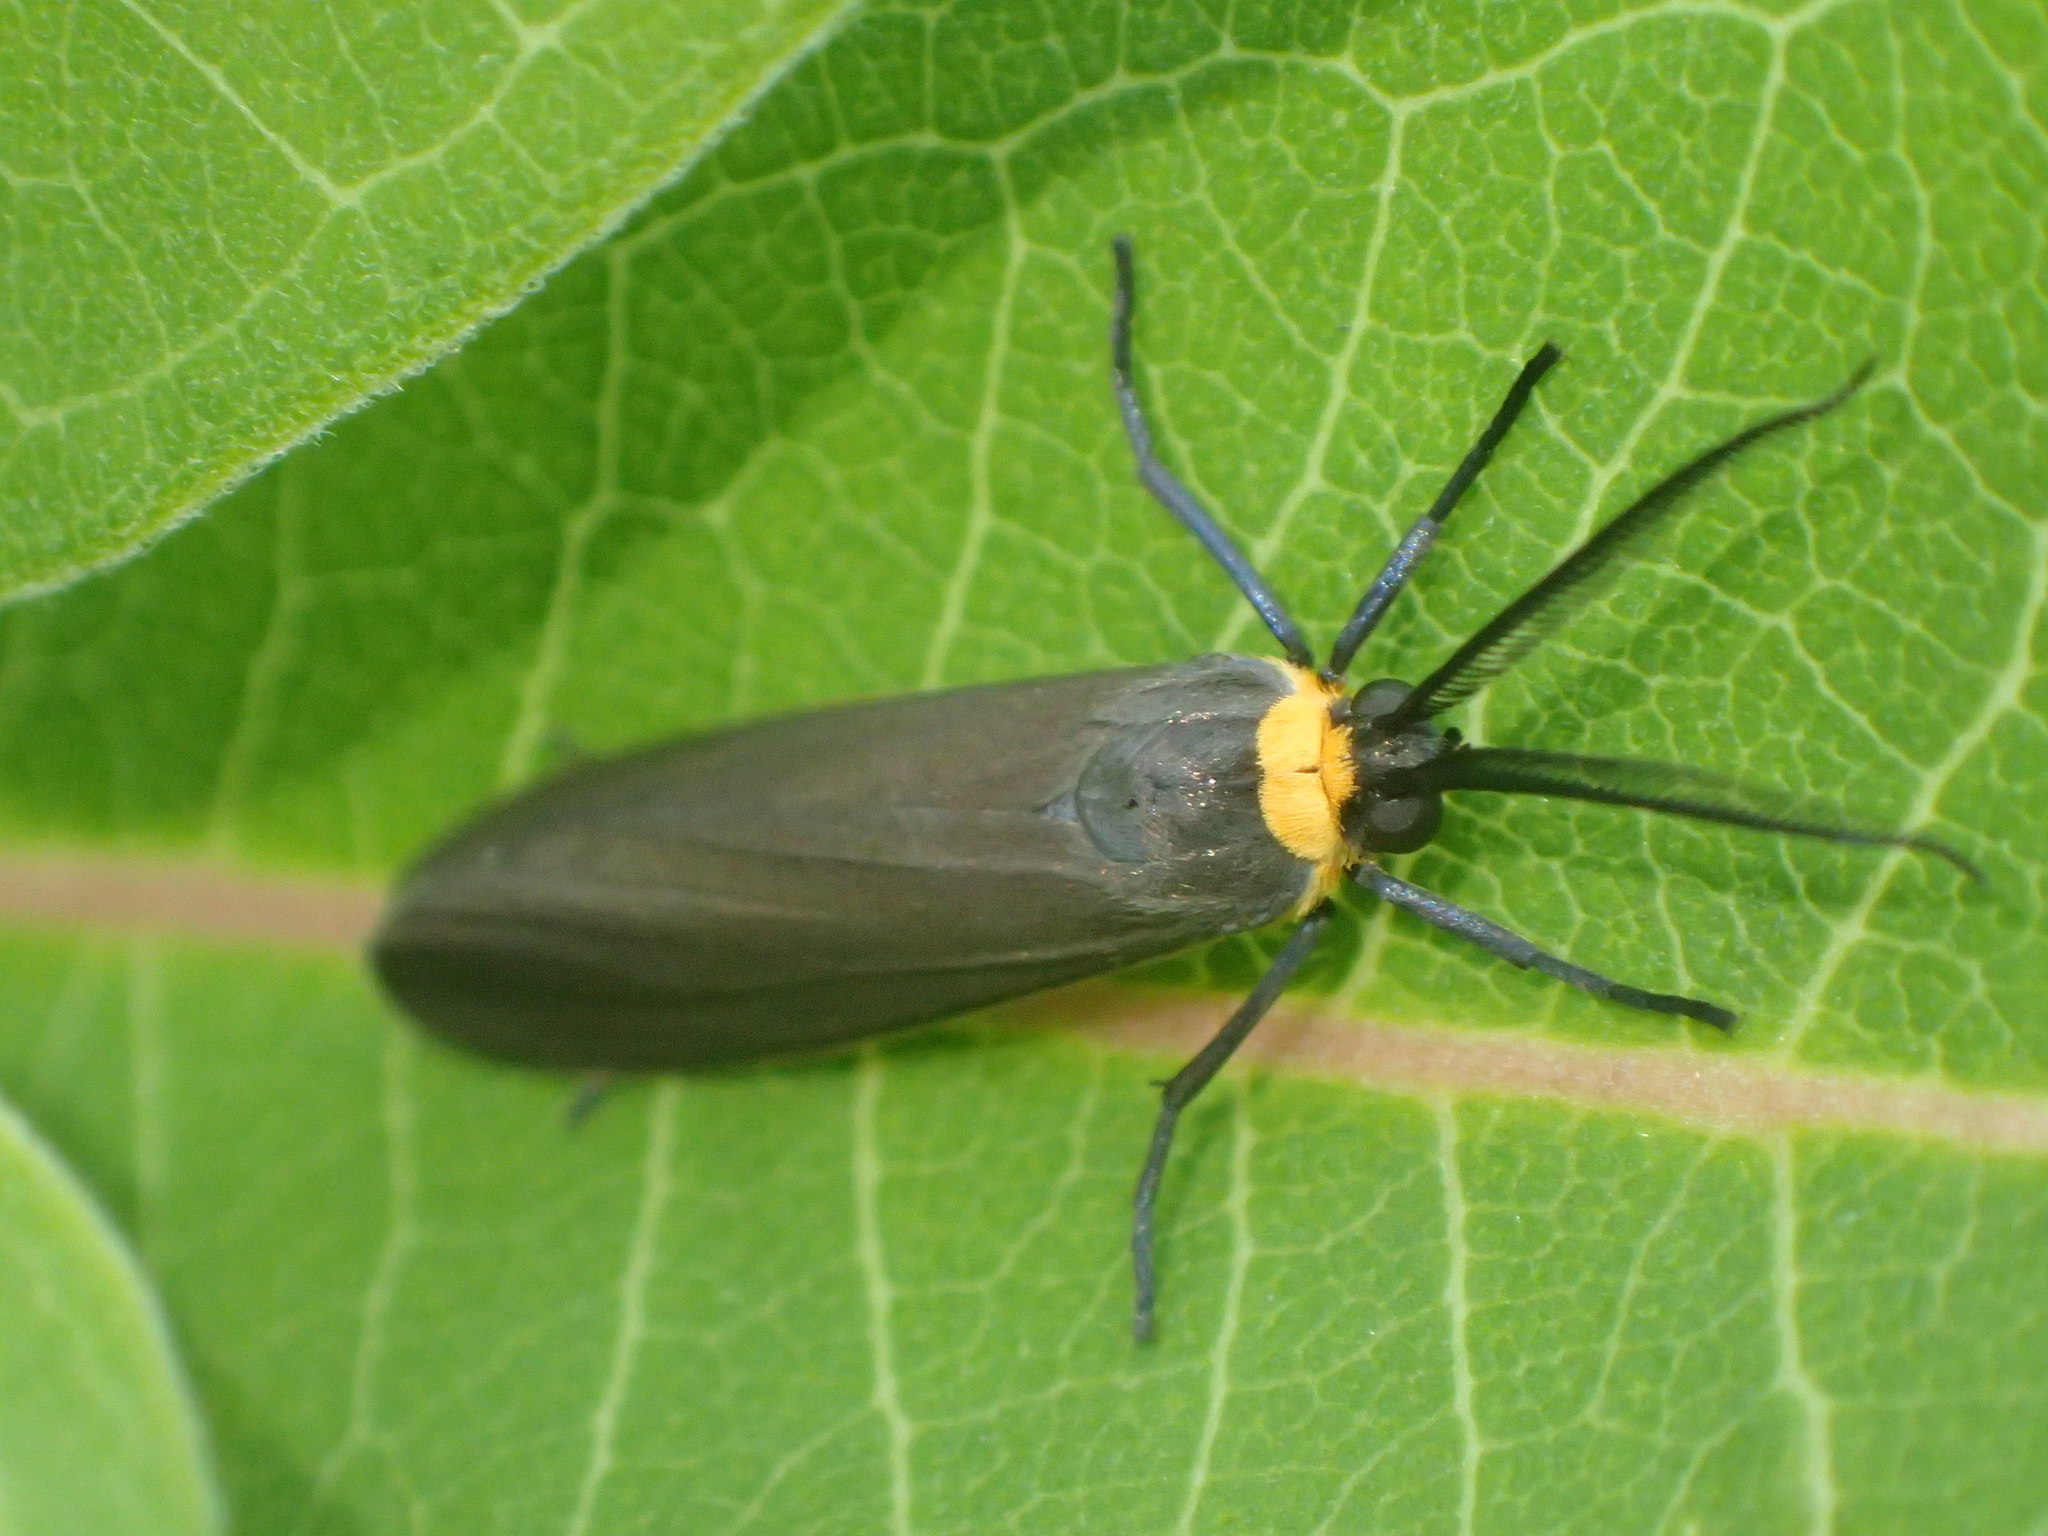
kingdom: Animalia
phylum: Arthropoda
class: Insecta
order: Lepidoptera
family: Erebidae
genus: Cisseps
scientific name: Cisseps fulvicollis
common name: Yellow-collared scape moth
